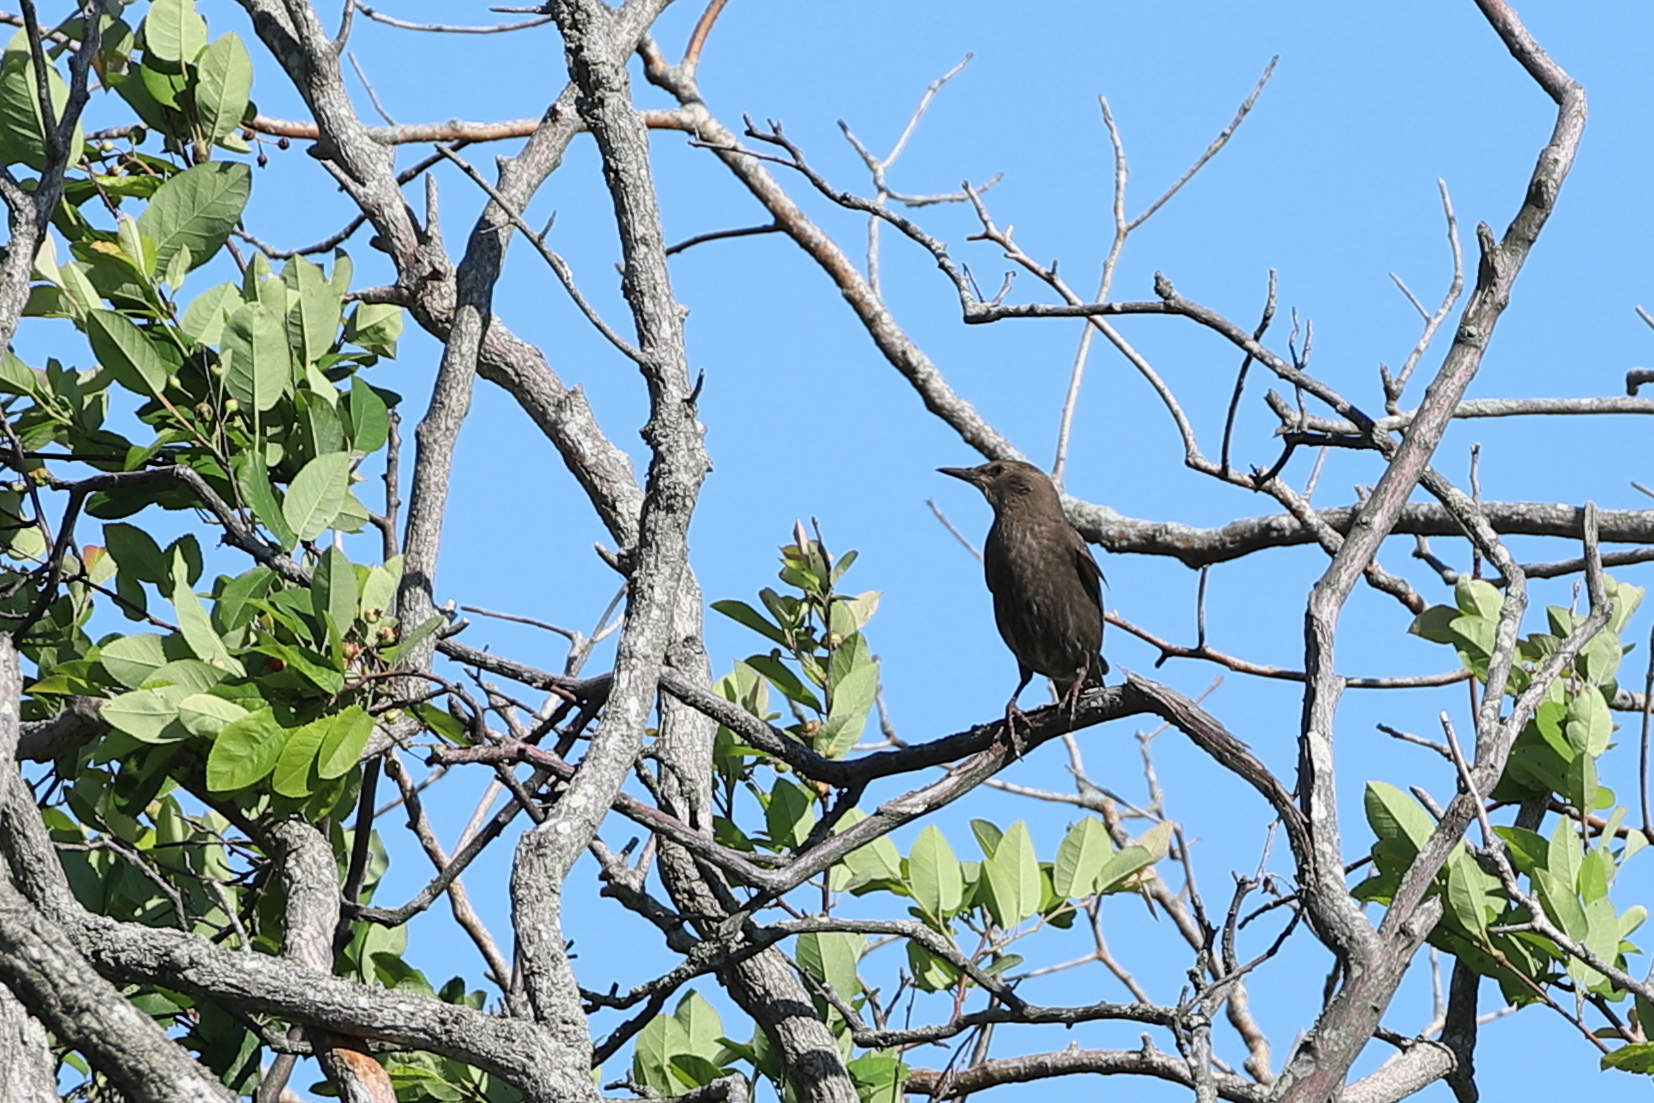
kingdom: Animalia
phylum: Chordata
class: Aves
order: Passeriformes
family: Sturnidae
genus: Sturnus
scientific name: Sturnus vulgaris
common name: Common starling
